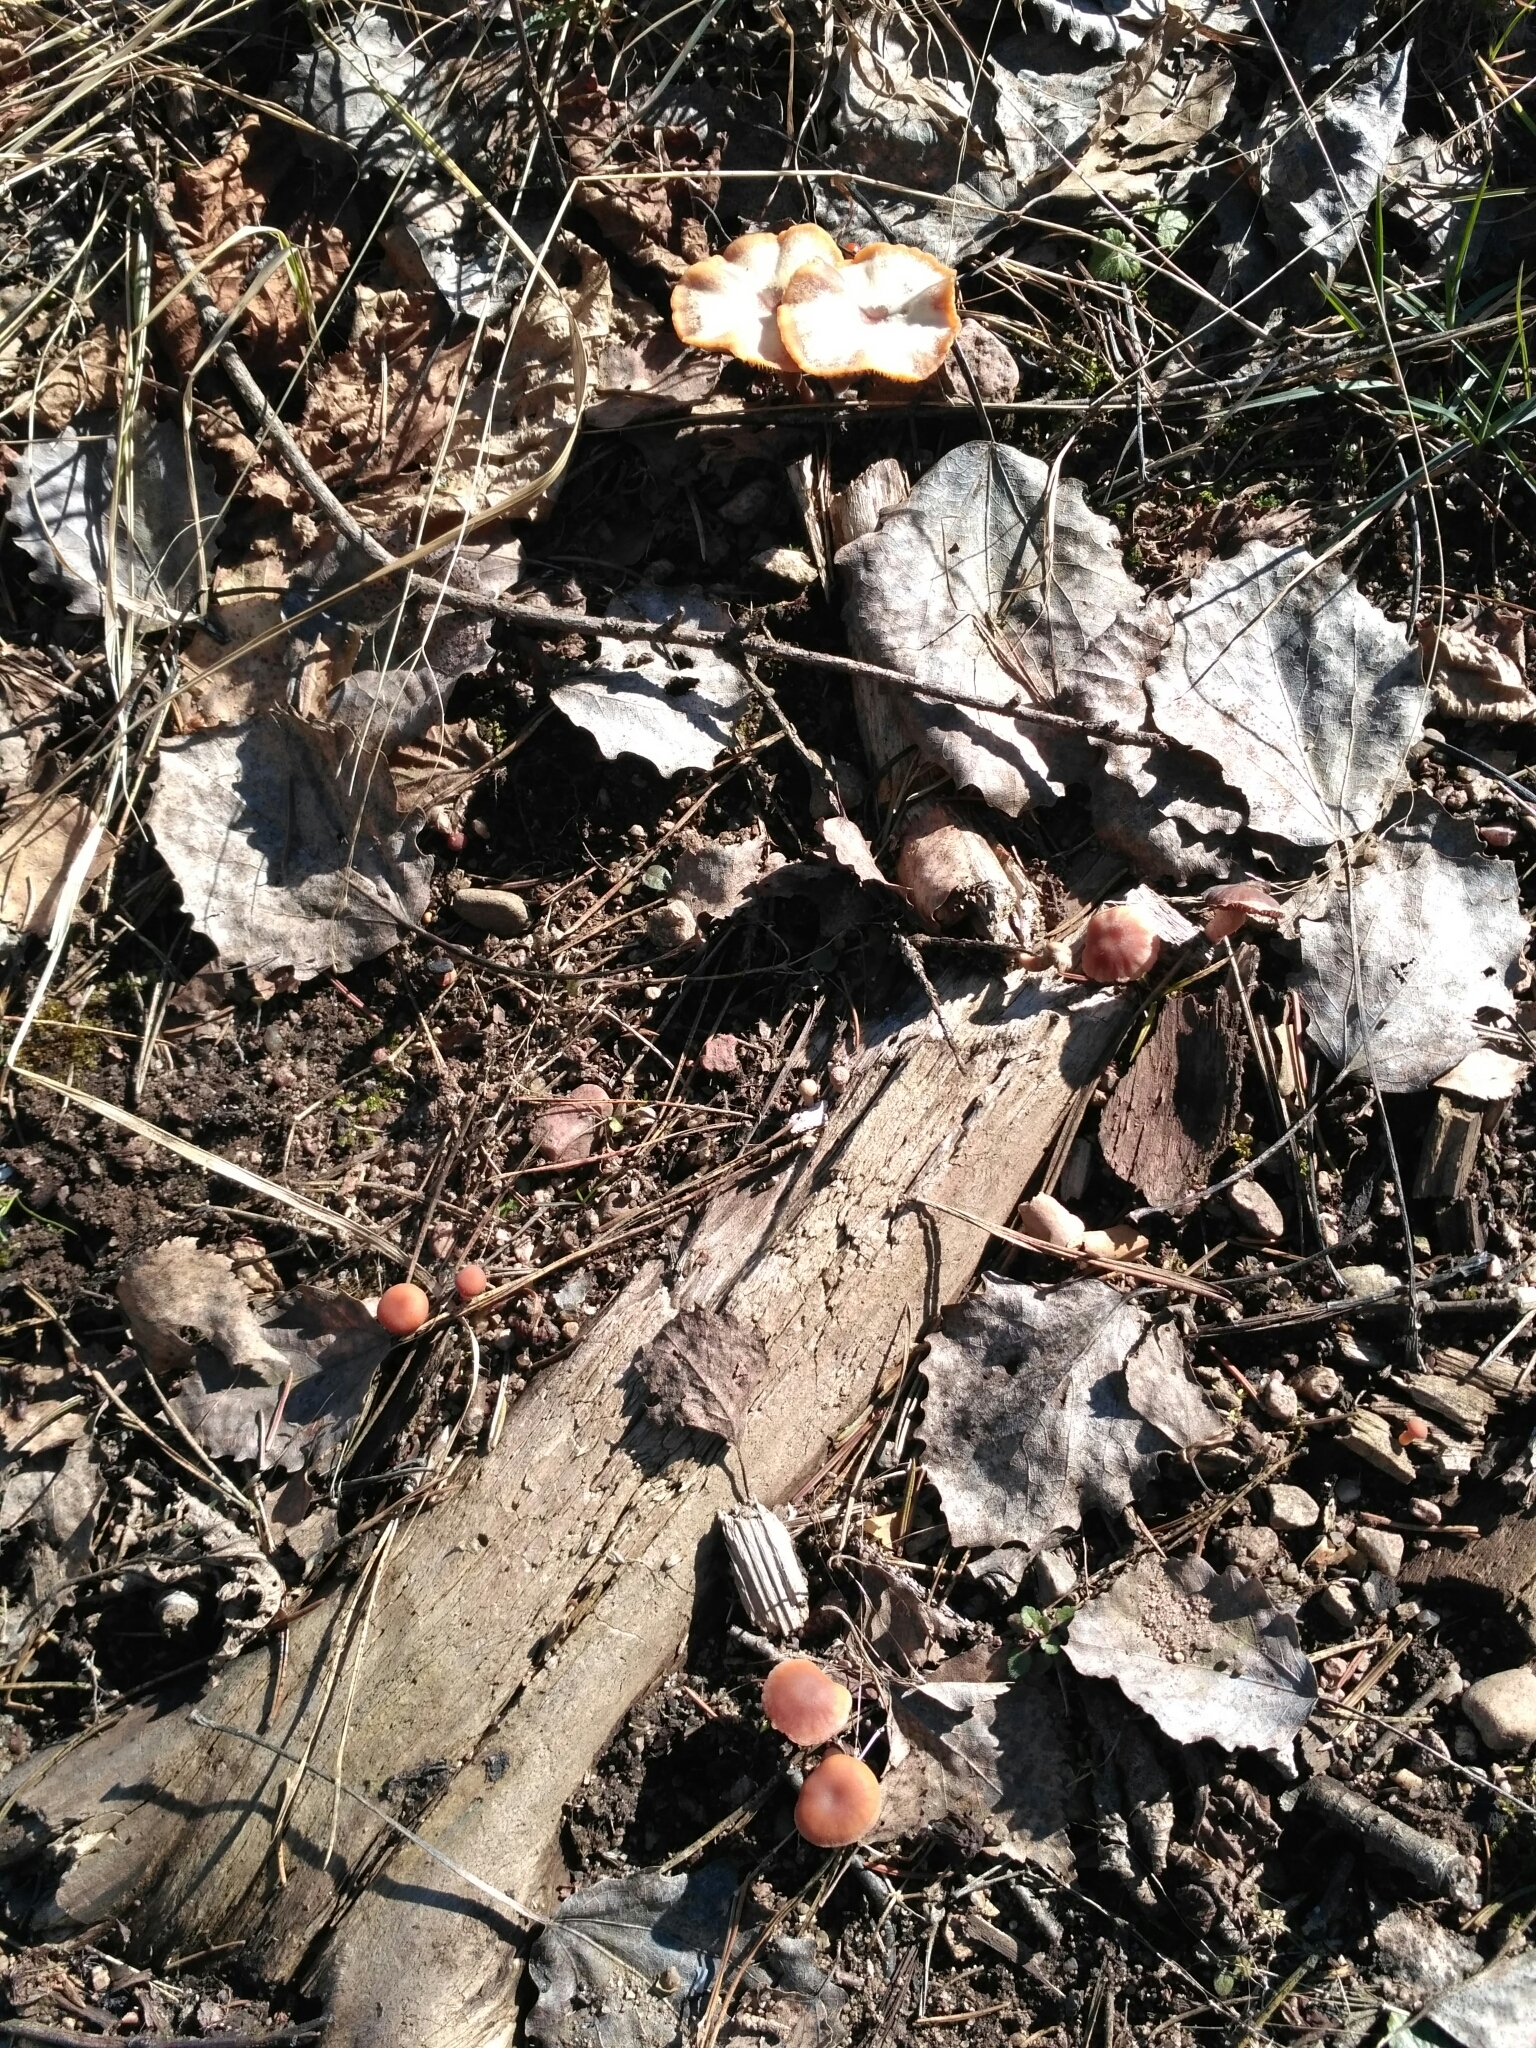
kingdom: Fungi
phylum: Basidiomycota
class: Agaricomycetes
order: Agaricales
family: Hydnangiaceae
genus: Laccaria
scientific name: Laccaria laccata
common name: Deceiver
